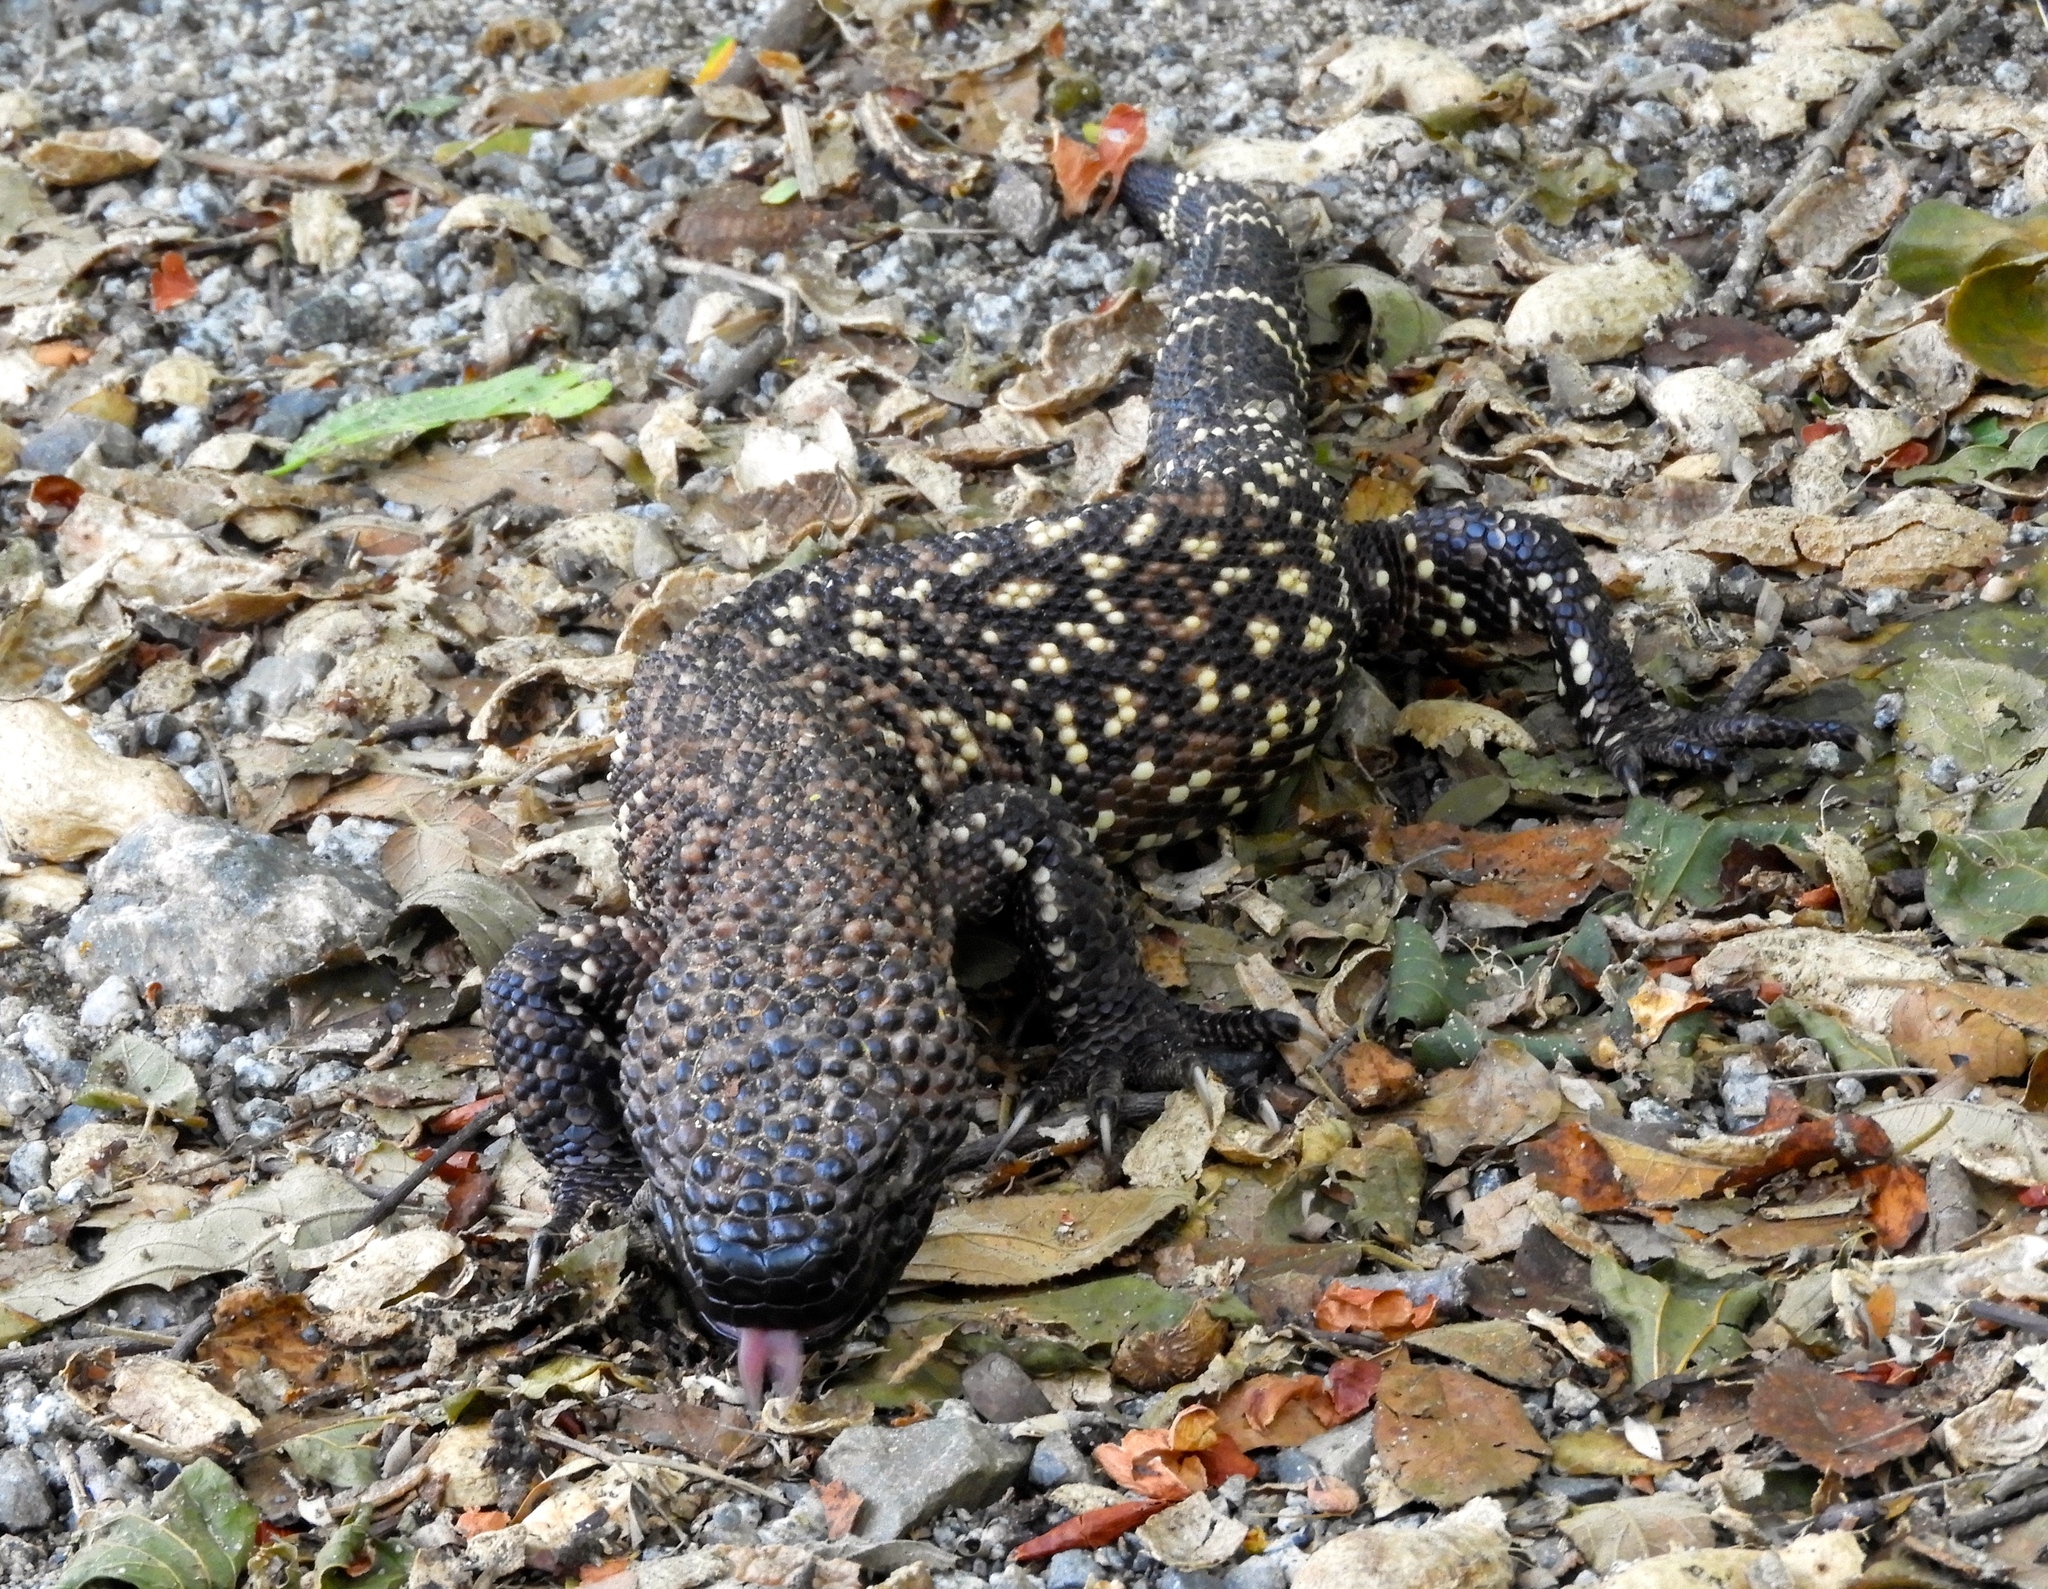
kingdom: Animalia
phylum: Chordata
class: Squamata
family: Helodermatidae
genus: Heloderma
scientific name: Heloderma horridum
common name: Mexican beaded lizard
